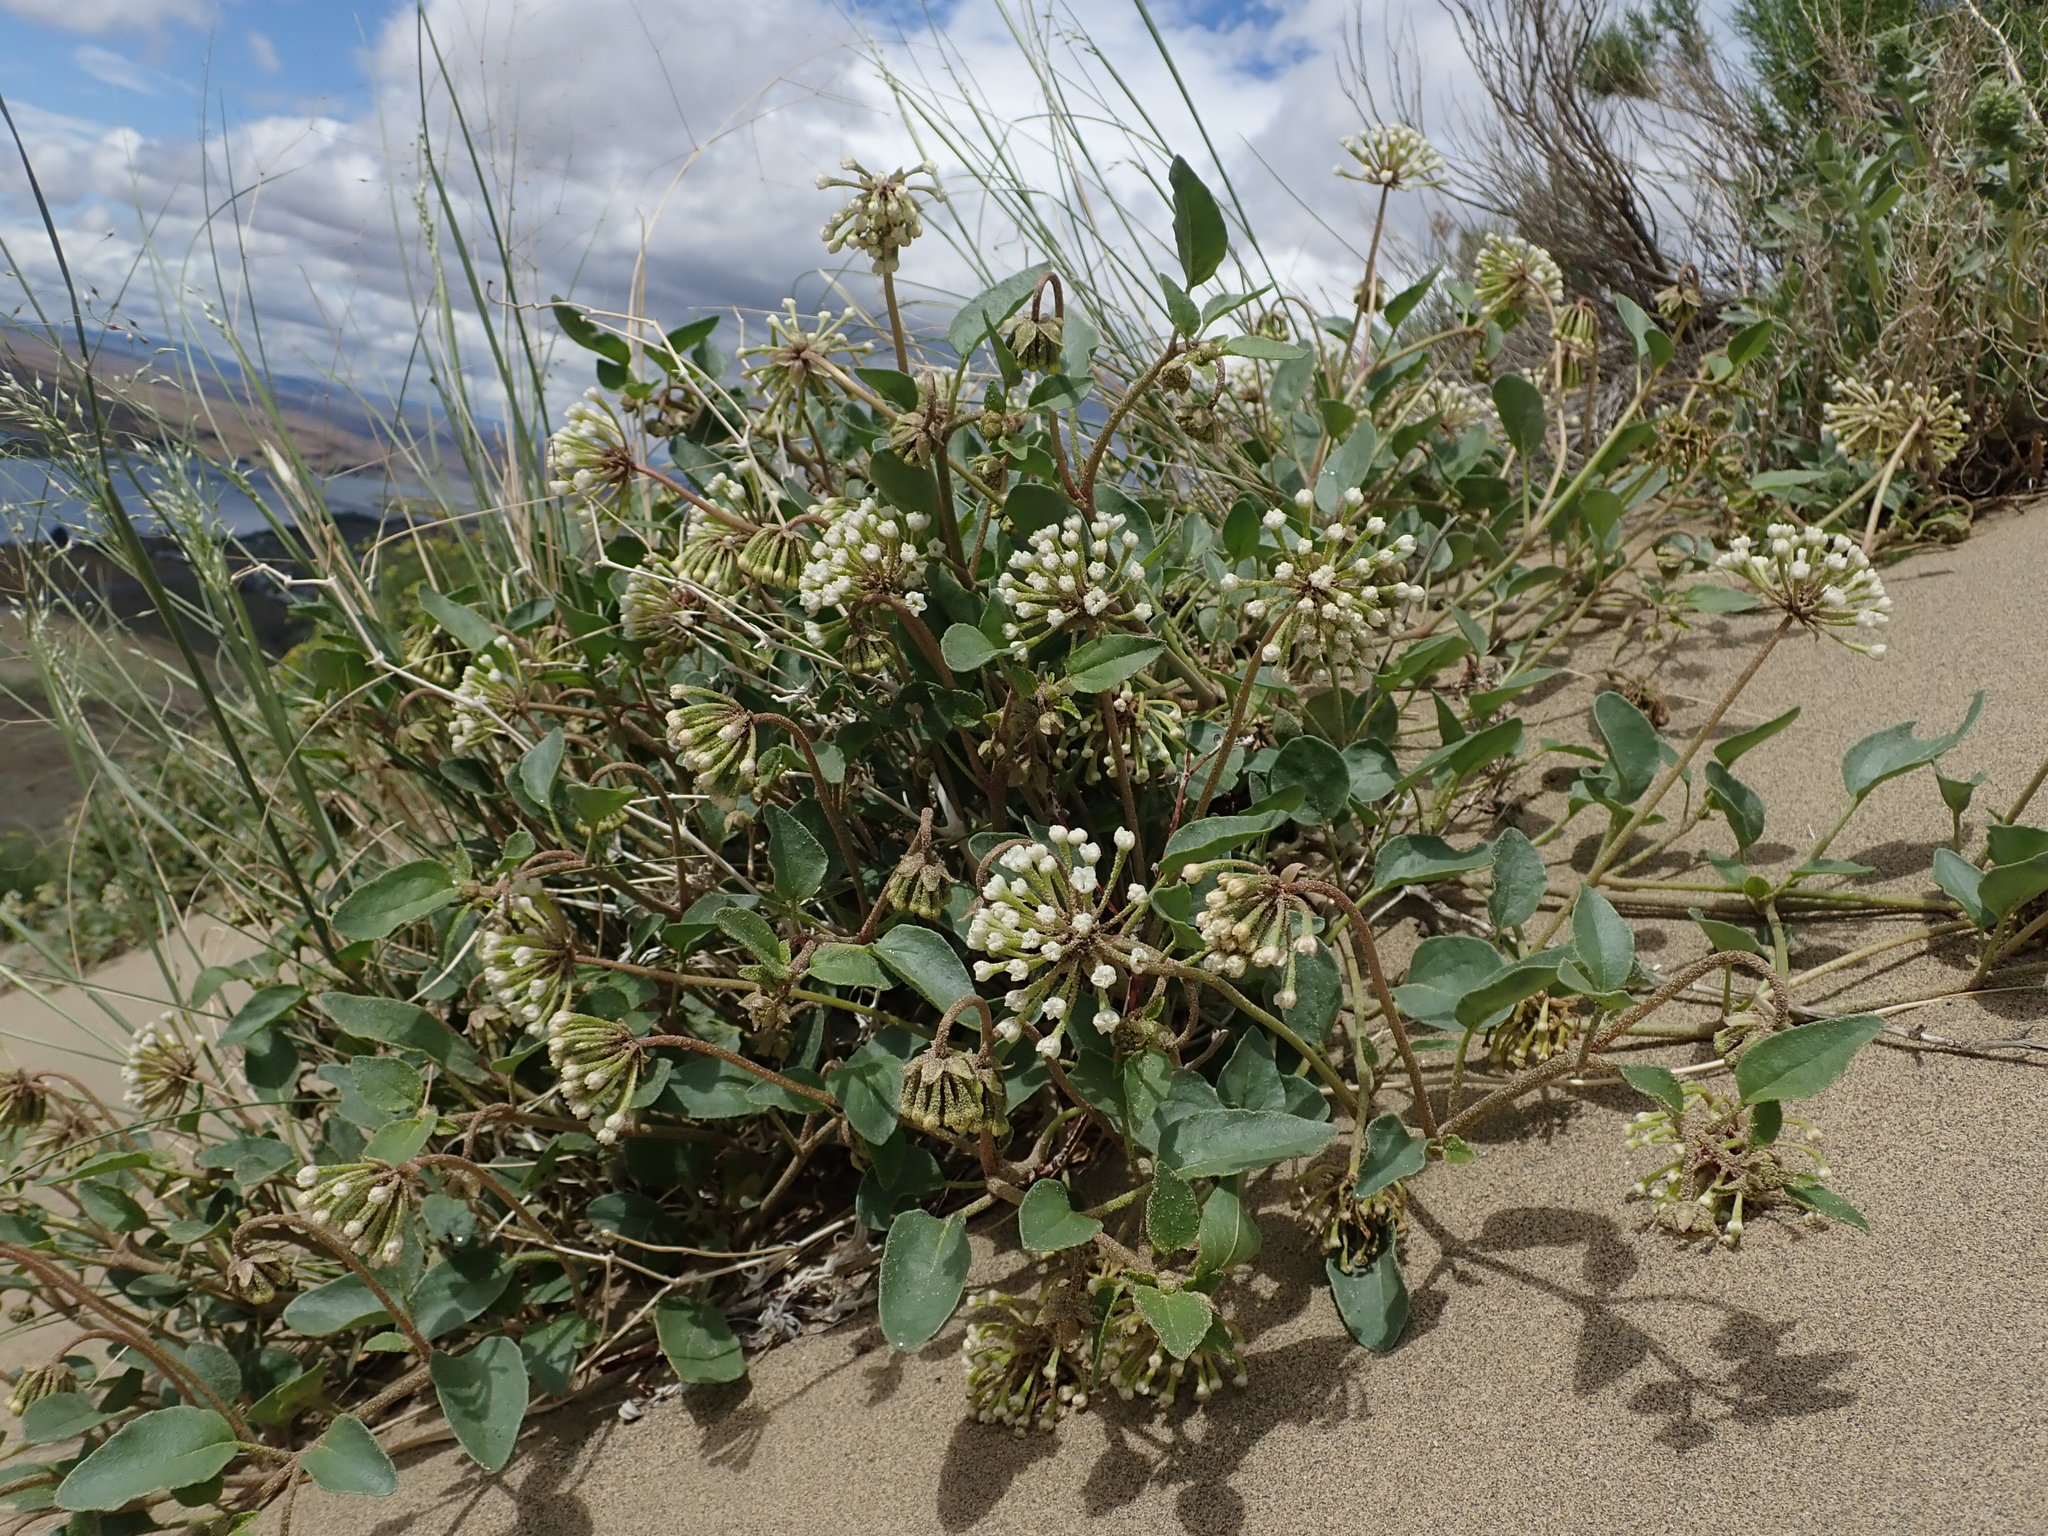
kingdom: Plantae
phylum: Tracheophyta
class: Magnoliopsida
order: Caryophyllales
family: Nyctaginaceae
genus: Abronia
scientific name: Abronia mellifera
